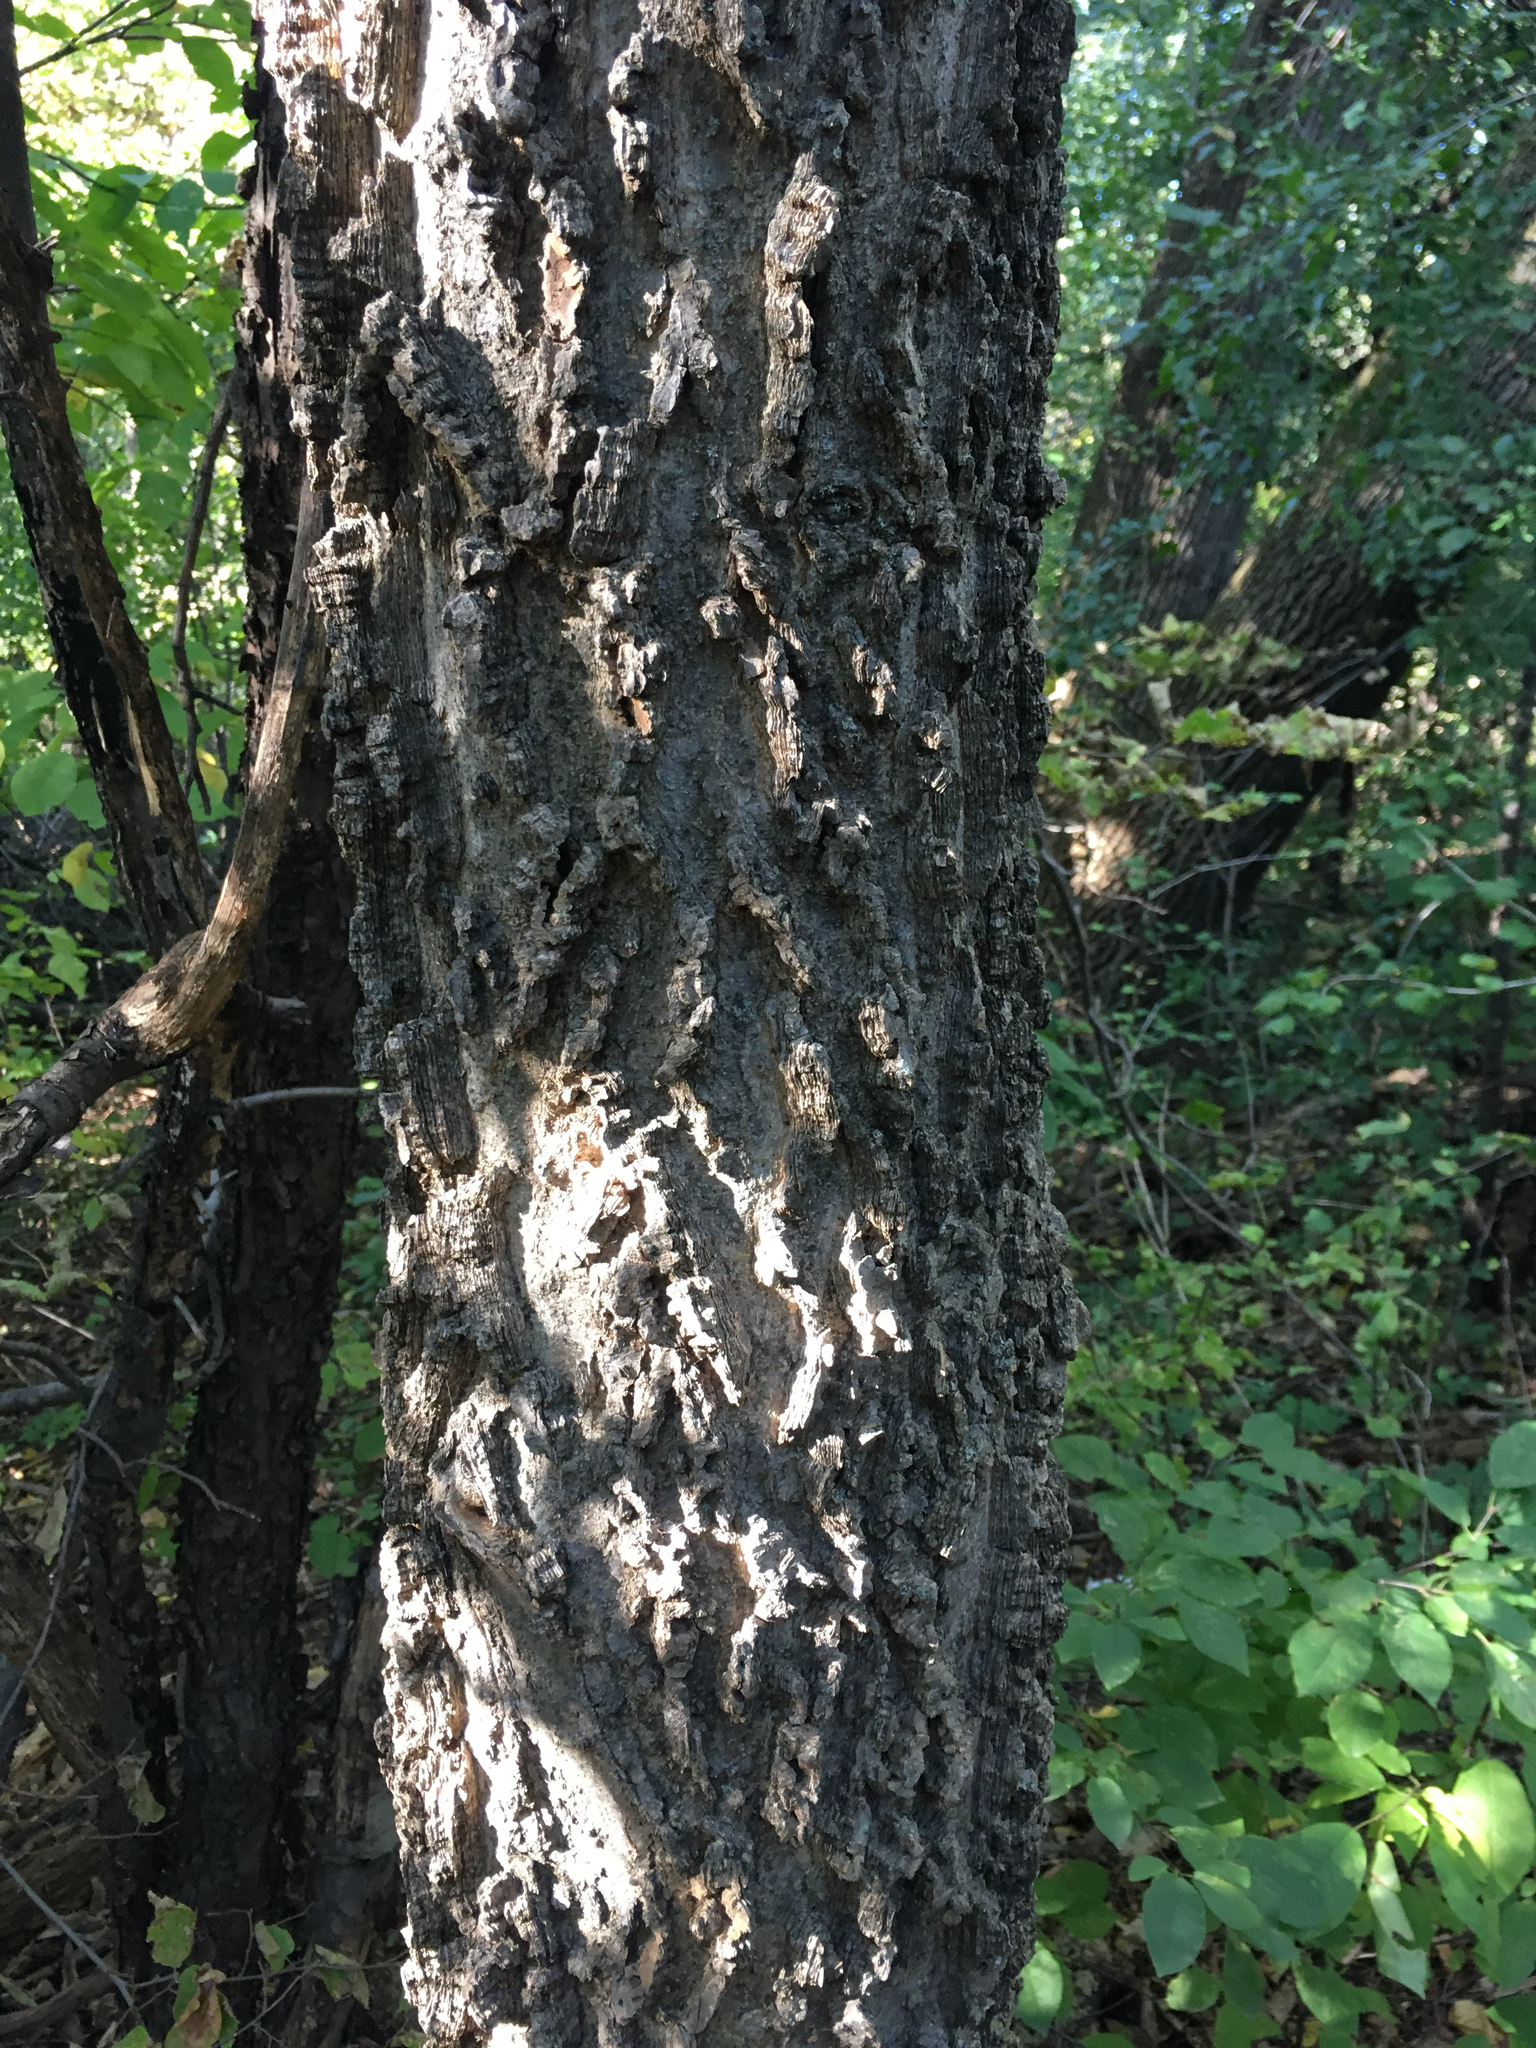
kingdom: Plantae
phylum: Tracheophyta
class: Magnoliopsida
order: Rosales
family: Cannabaceae
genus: Celtis
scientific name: Celtis occidentalis
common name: Common hackberry
